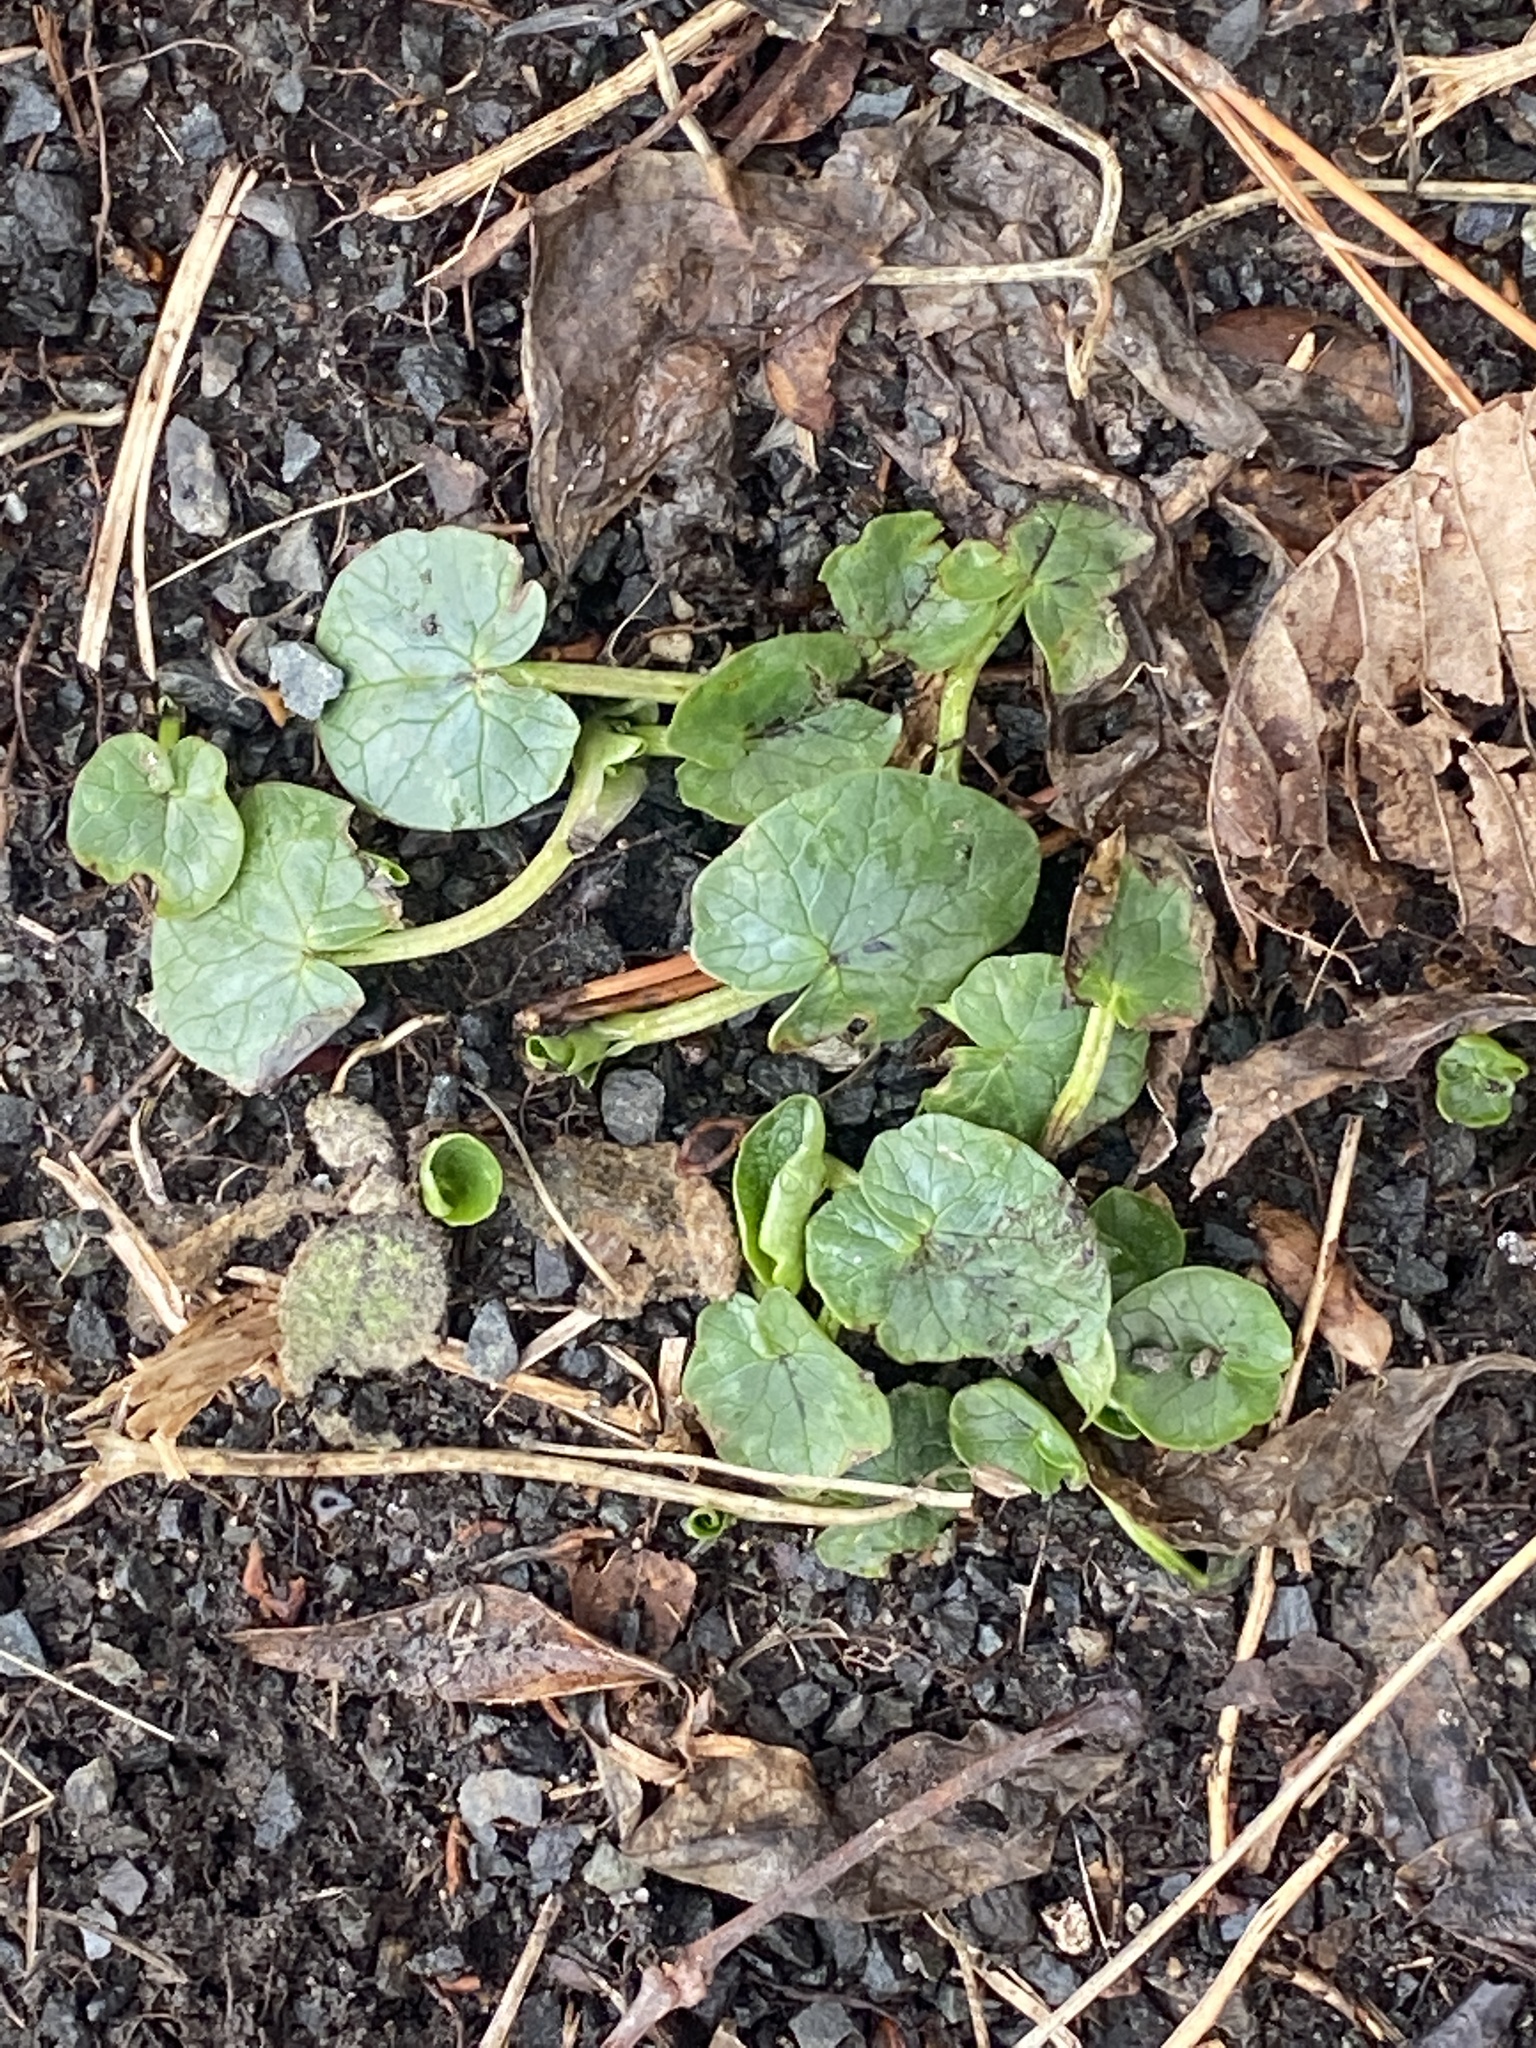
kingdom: Plantae
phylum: Tracheophyta
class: Magnoliopsida
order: Ranunculales
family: Ranunculaceae
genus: Ficaria
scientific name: Ficaria verna
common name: Lesser celandine
